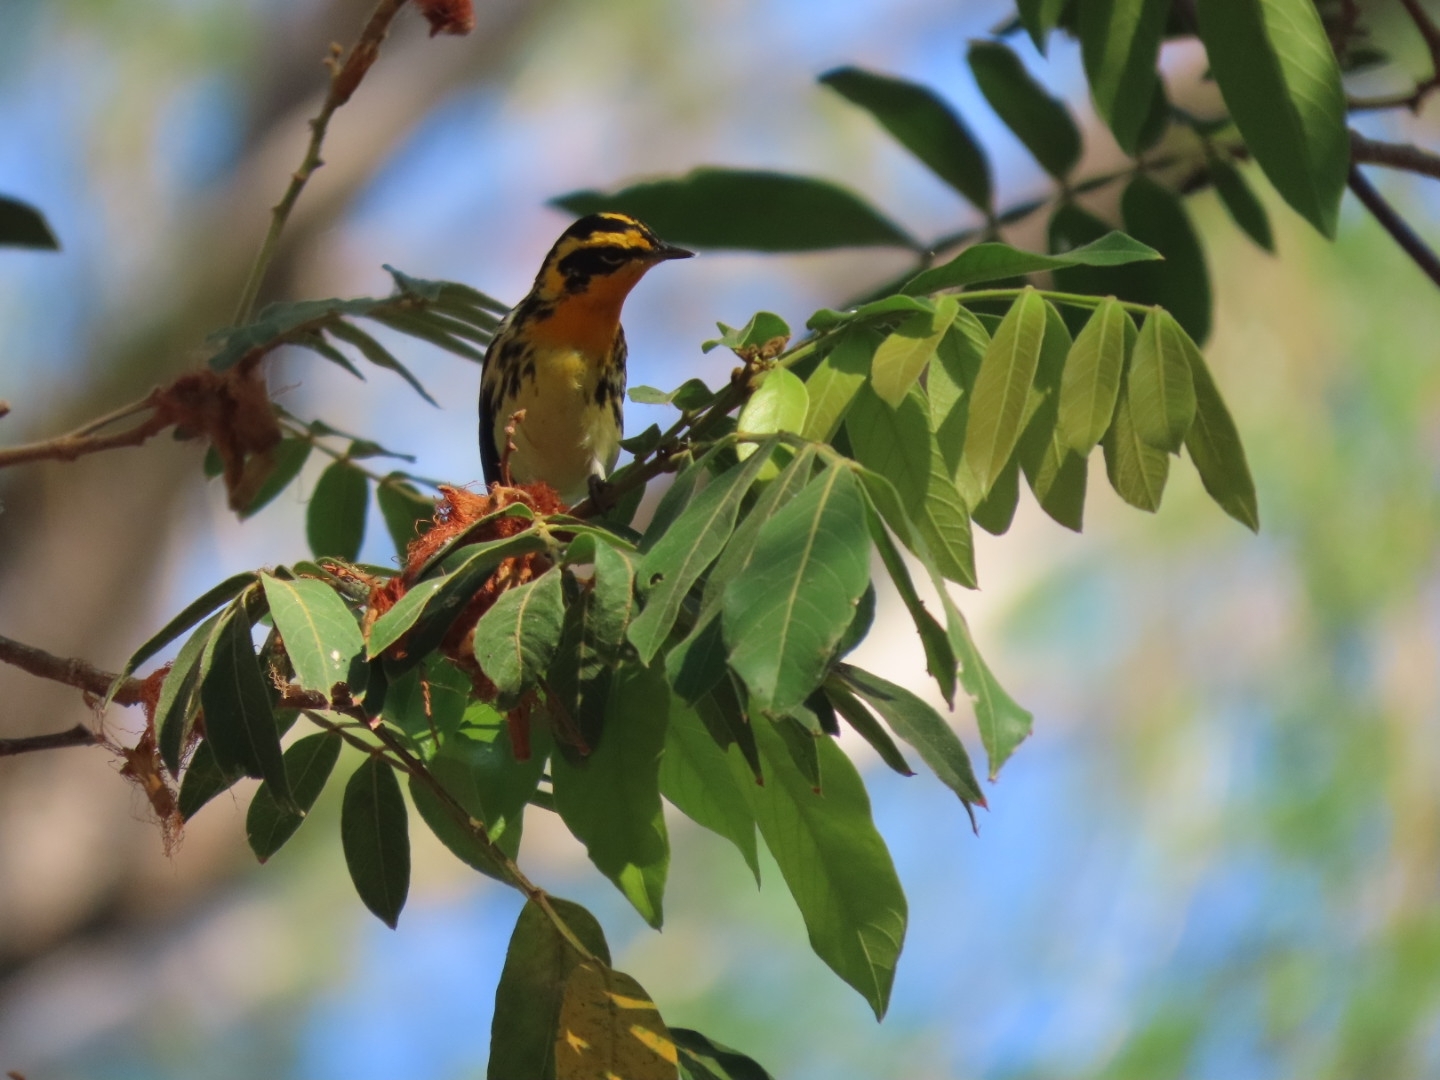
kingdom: Animalia
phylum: Chordata
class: Aves
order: Passeriformes
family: Parulidae
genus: Setophaga
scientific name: Setophaga fusca
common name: Blackburnian warbler
